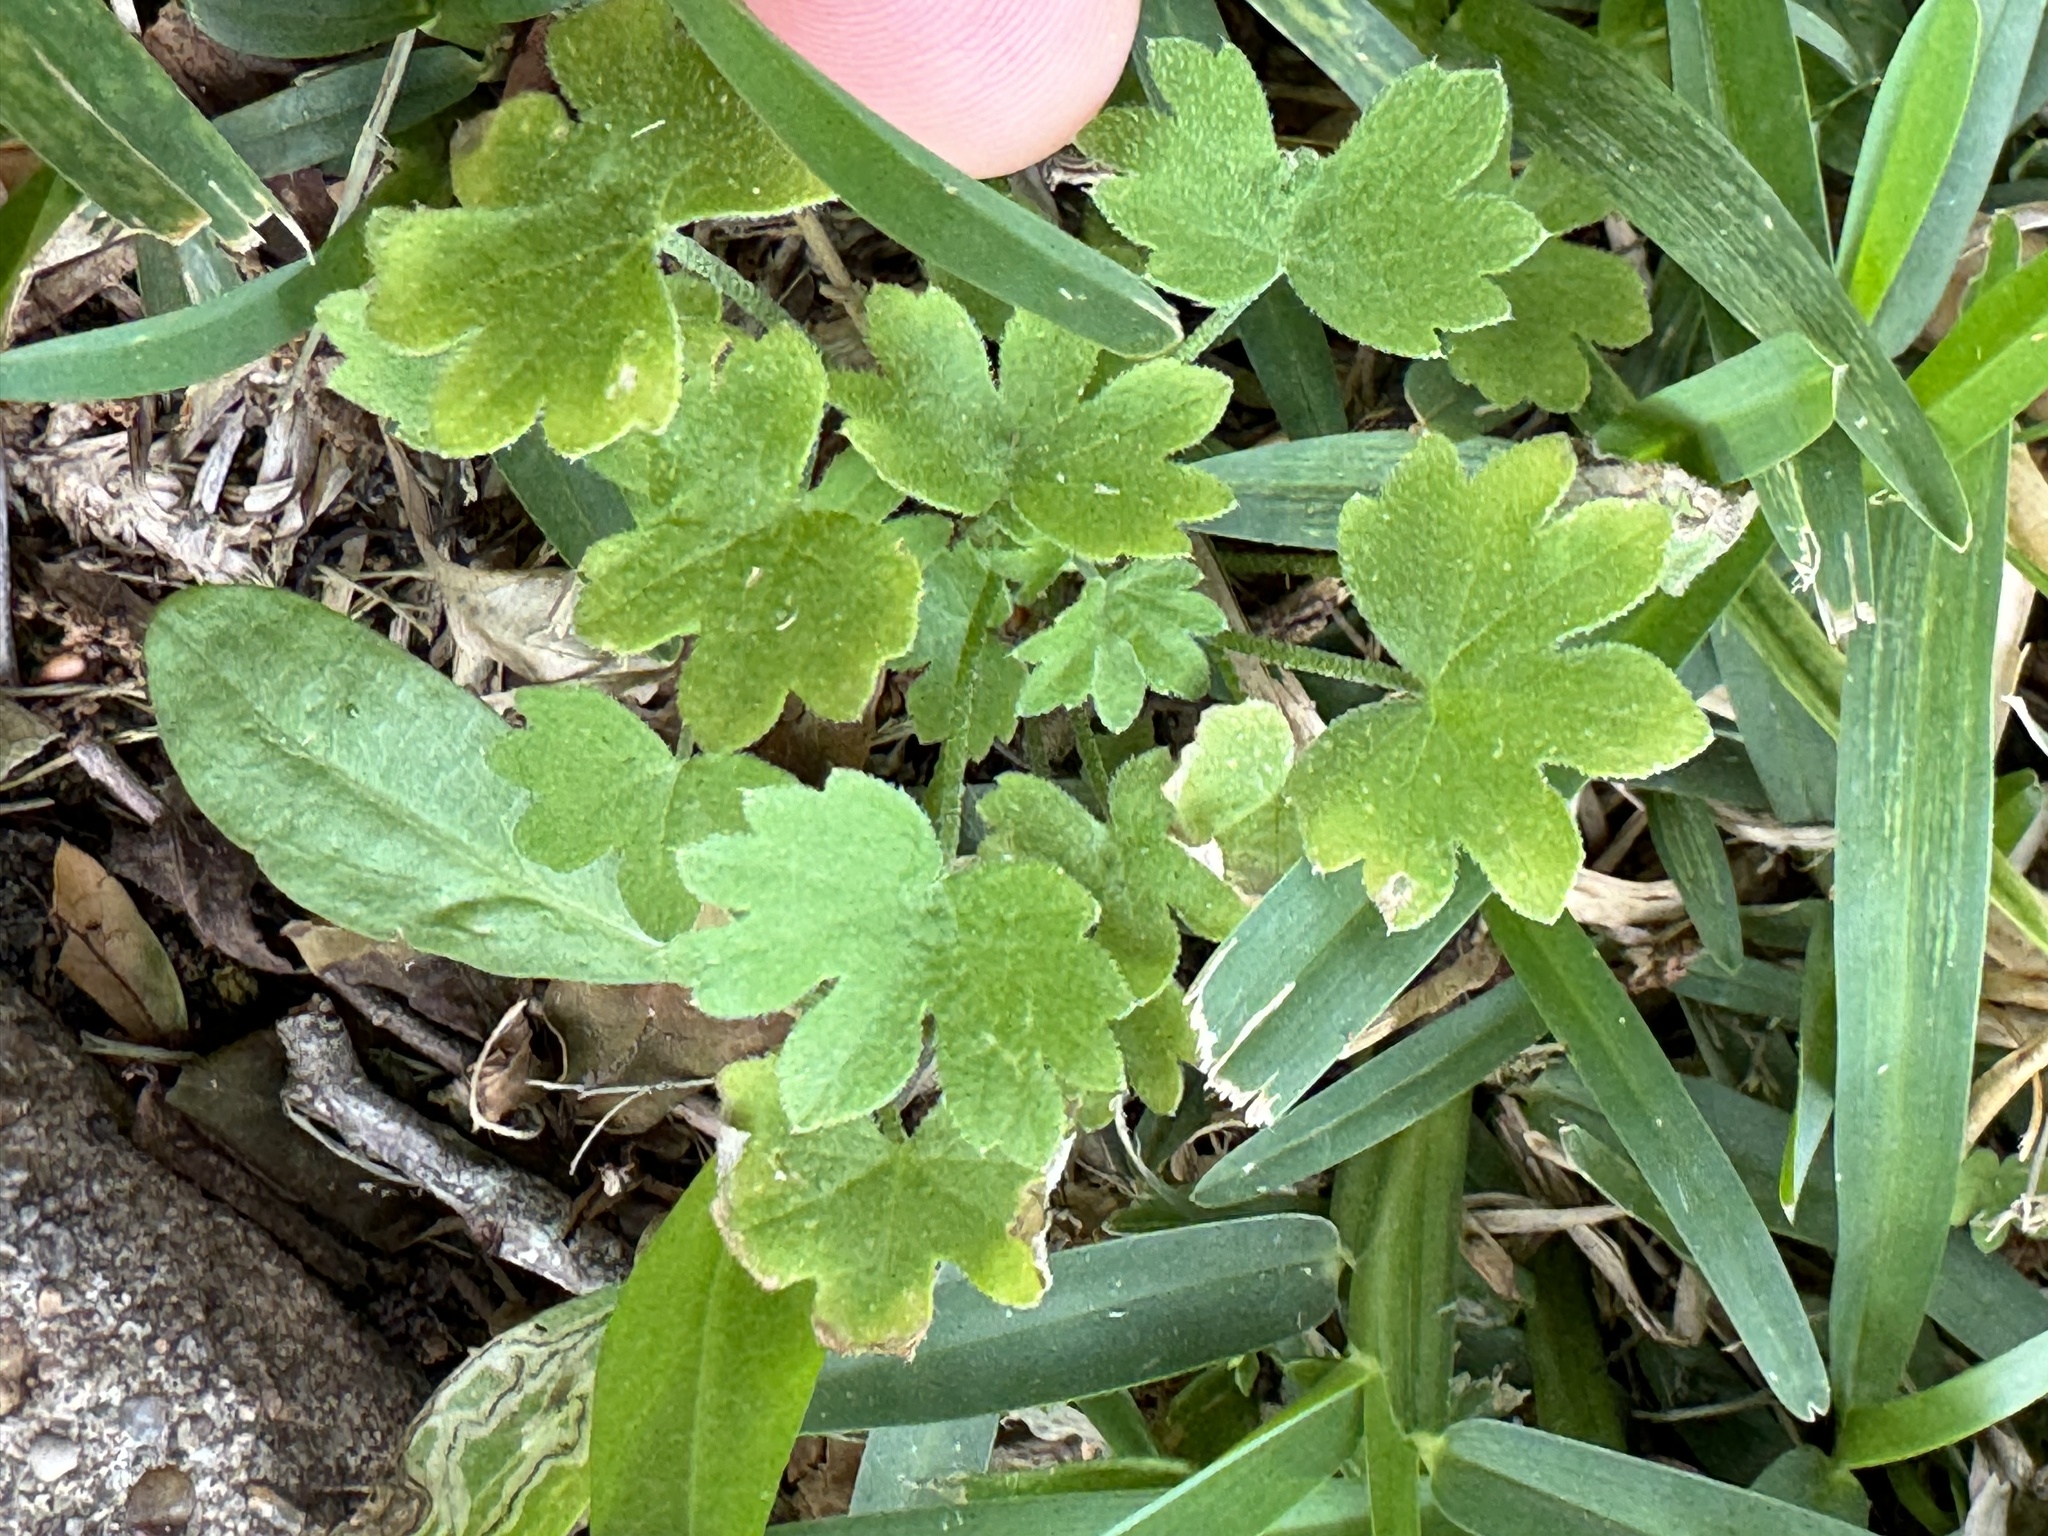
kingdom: Plantae
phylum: Tracheophyta
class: Magnoliopsida
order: Apiales
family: Apiaceae
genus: Bowlesia
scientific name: Bowlesia incana
